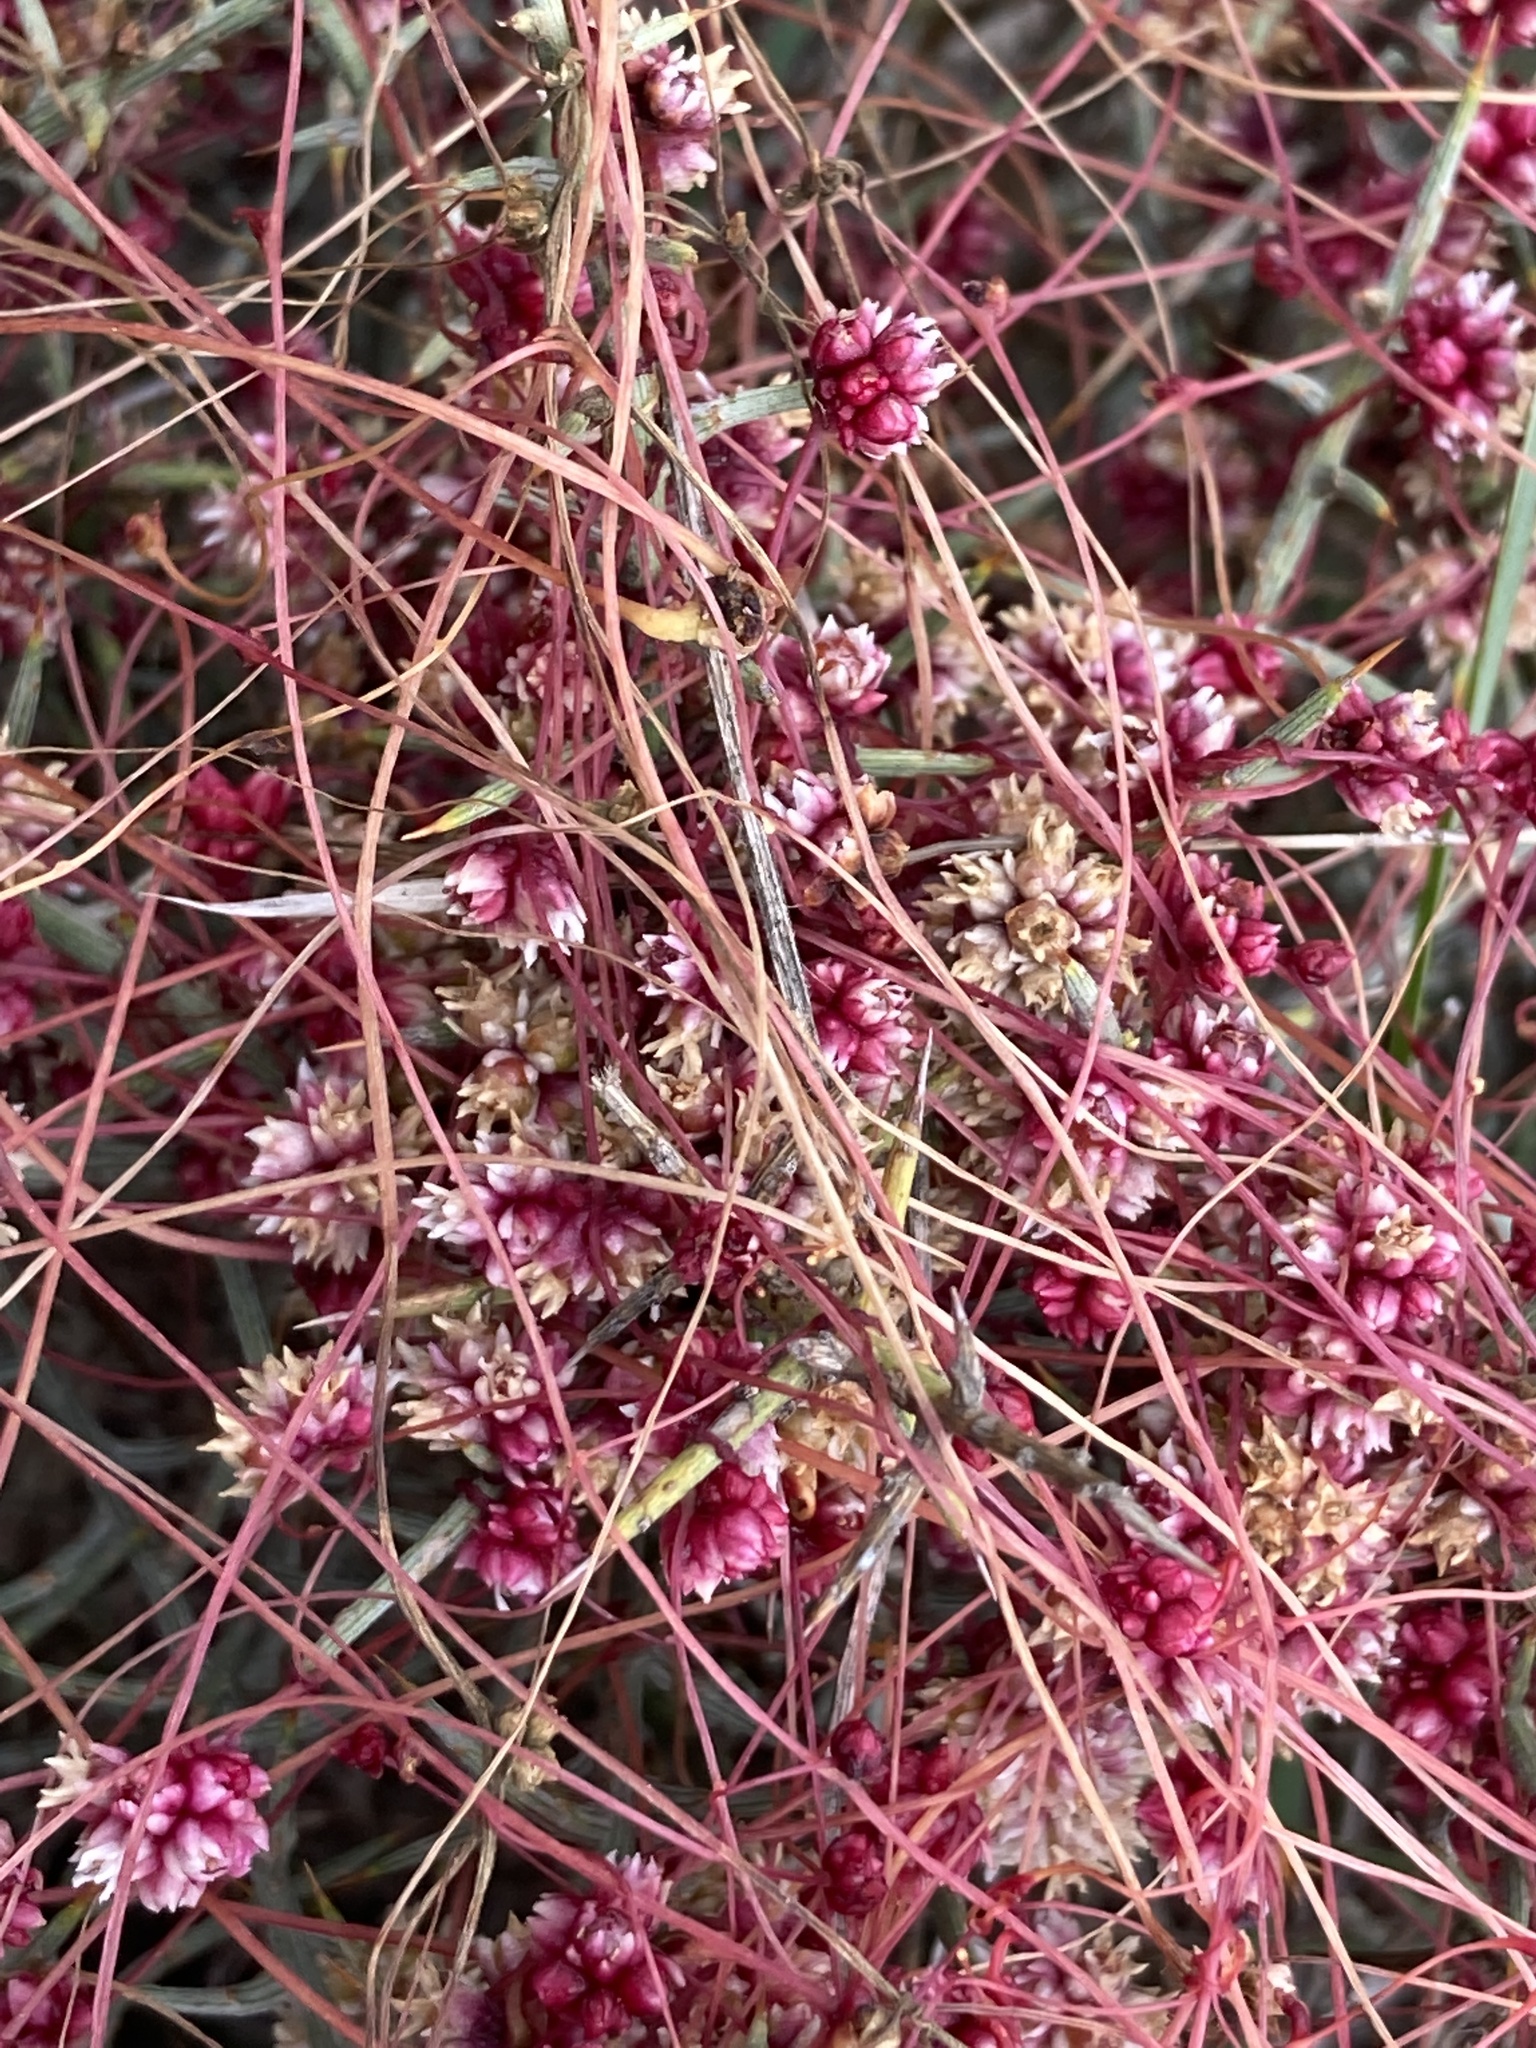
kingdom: Plantae
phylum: Tracheophyta
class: Magnoliopsida
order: Solanales
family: Convolvulaceae
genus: Cuscuta
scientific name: Cuscuta epithymum
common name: Clover dodder
